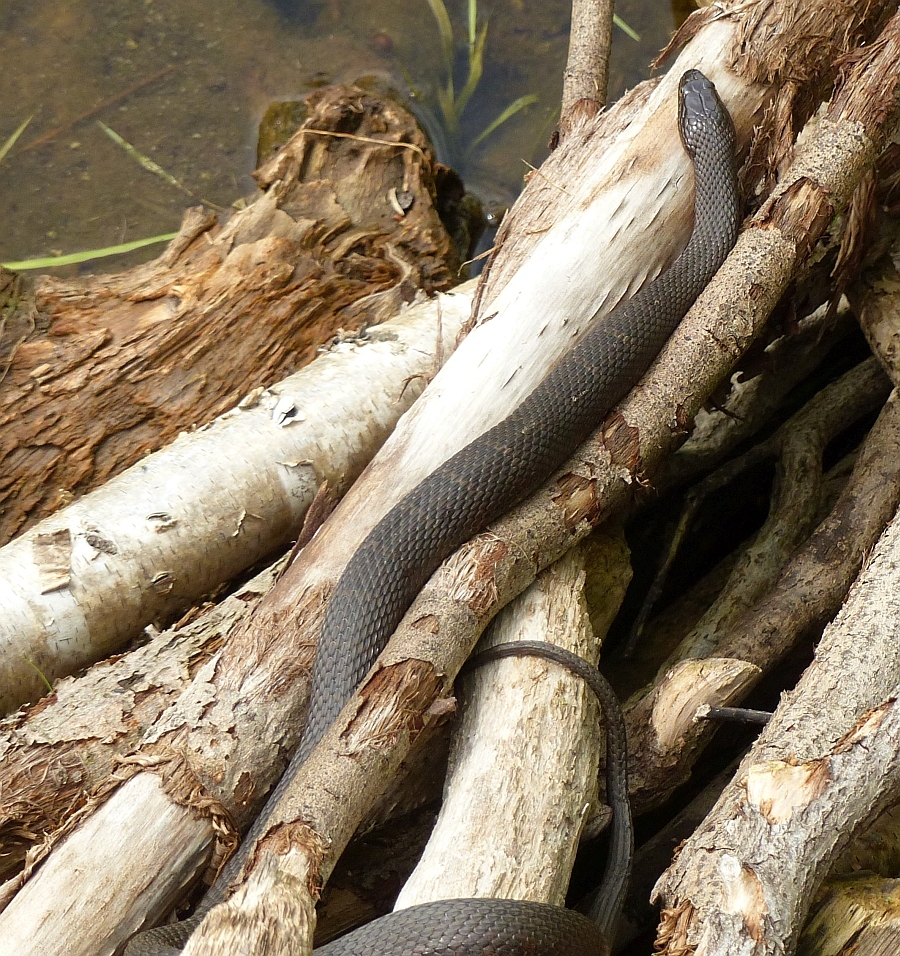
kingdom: Animalia
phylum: Chordata
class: Squamata
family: Colubridae
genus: Nerodia
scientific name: Nerodia sipedon
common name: Northern water snake
